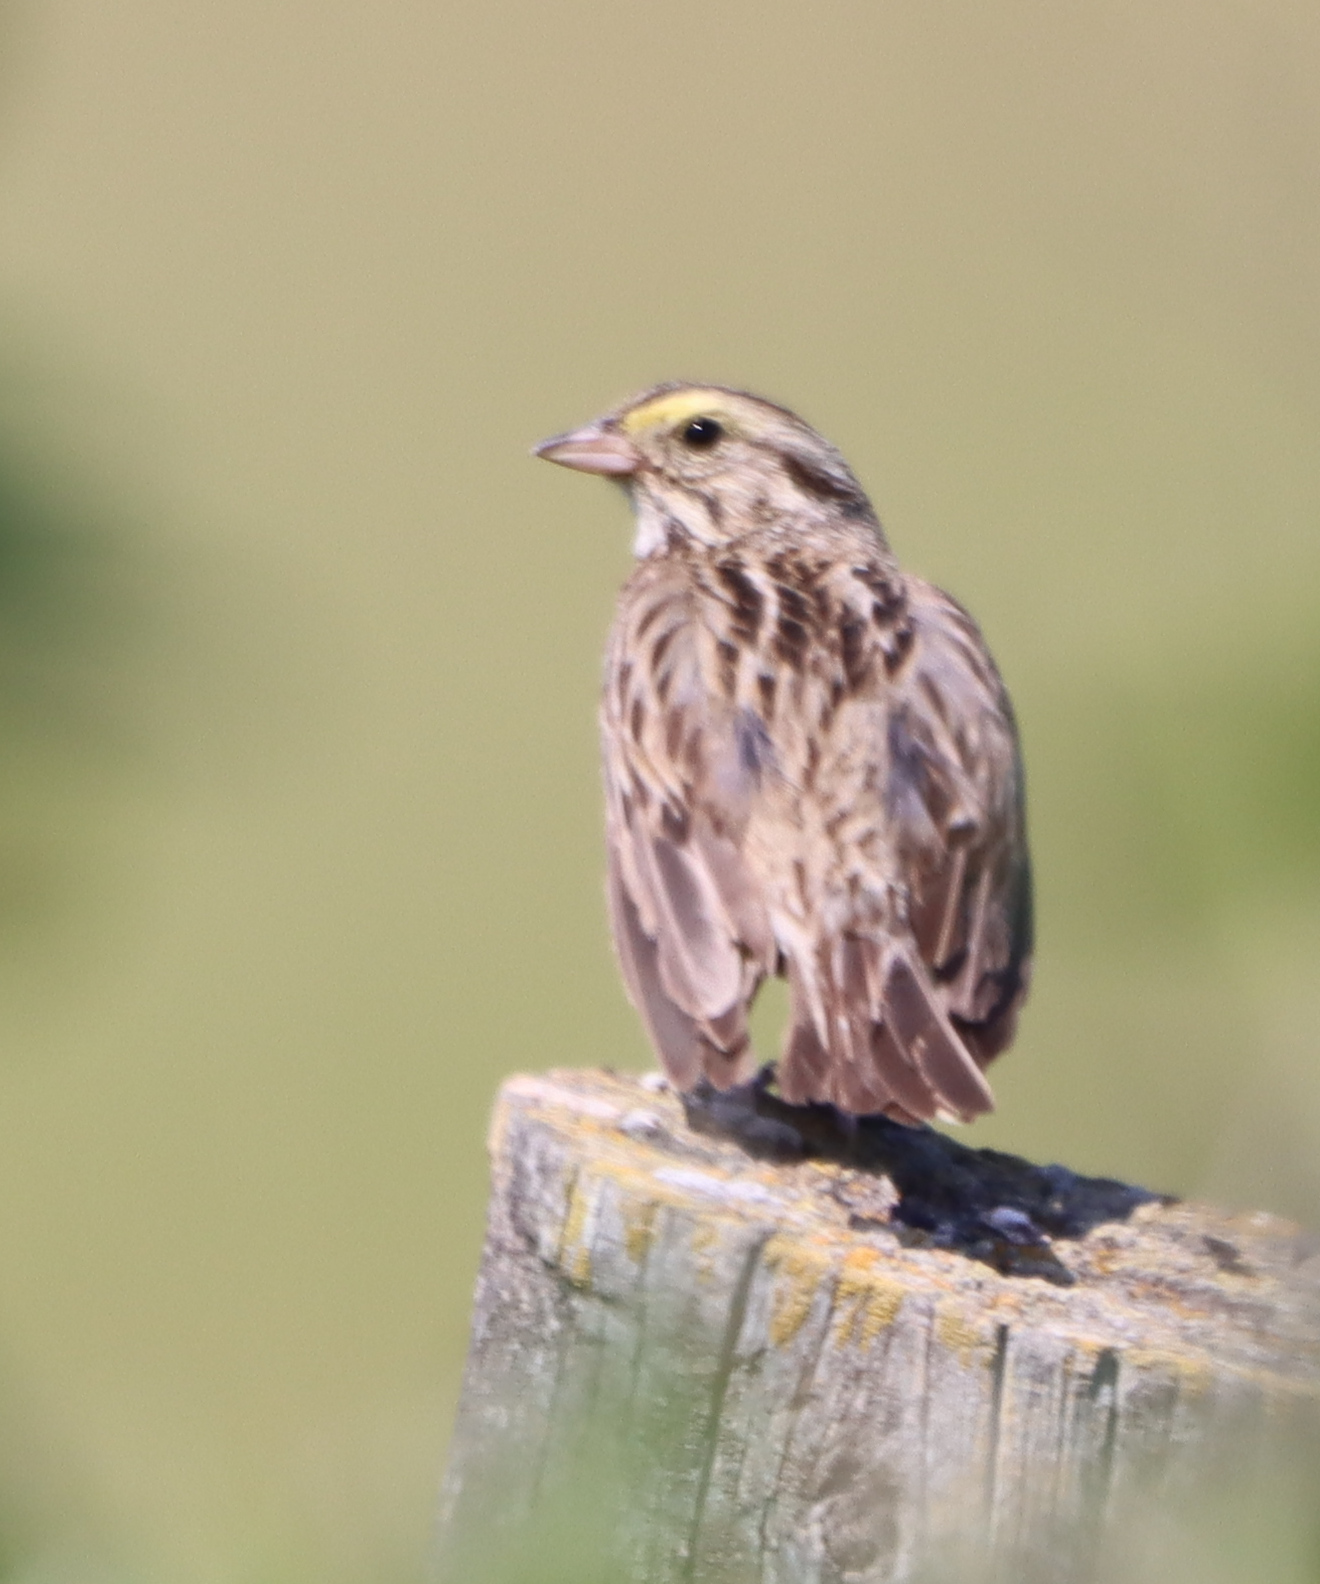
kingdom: Animalia
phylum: Chordata
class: Aves
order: Passeriformes
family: Passerellidae
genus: Passerculus
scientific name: Passerculus sandwichensis
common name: Savannah sparrow
